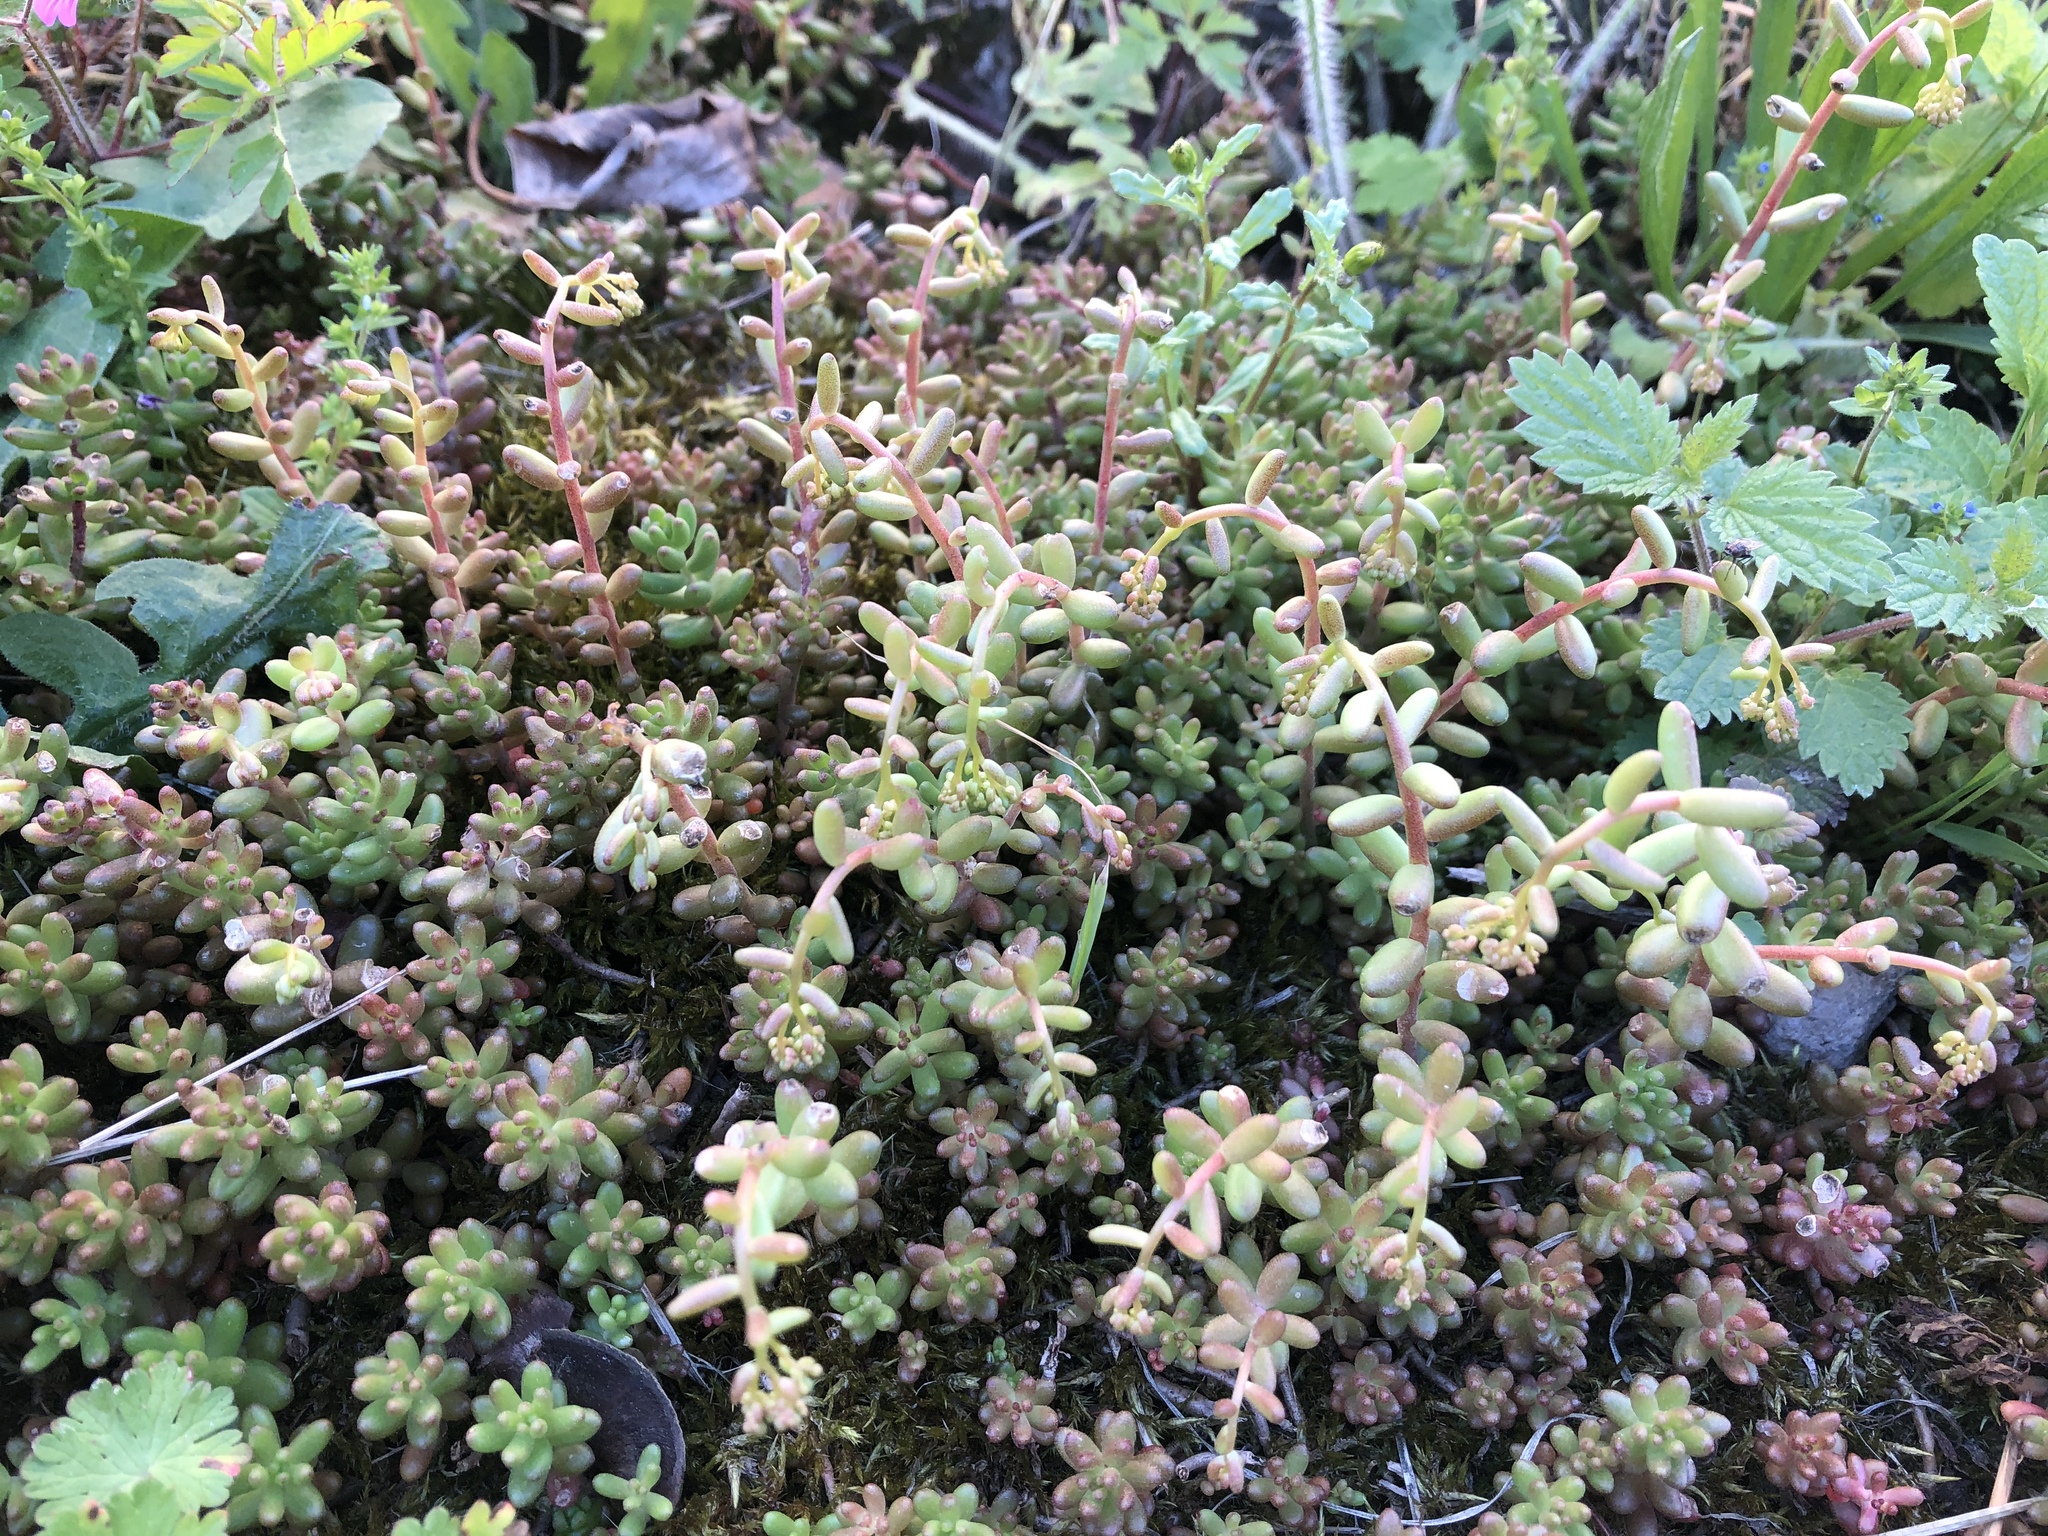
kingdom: Plantae
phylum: Tracheophyta
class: Magnoliopsida
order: Saxifragales
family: Crassulaceae
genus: Sedum
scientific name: Sedum album
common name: White stonecrop
